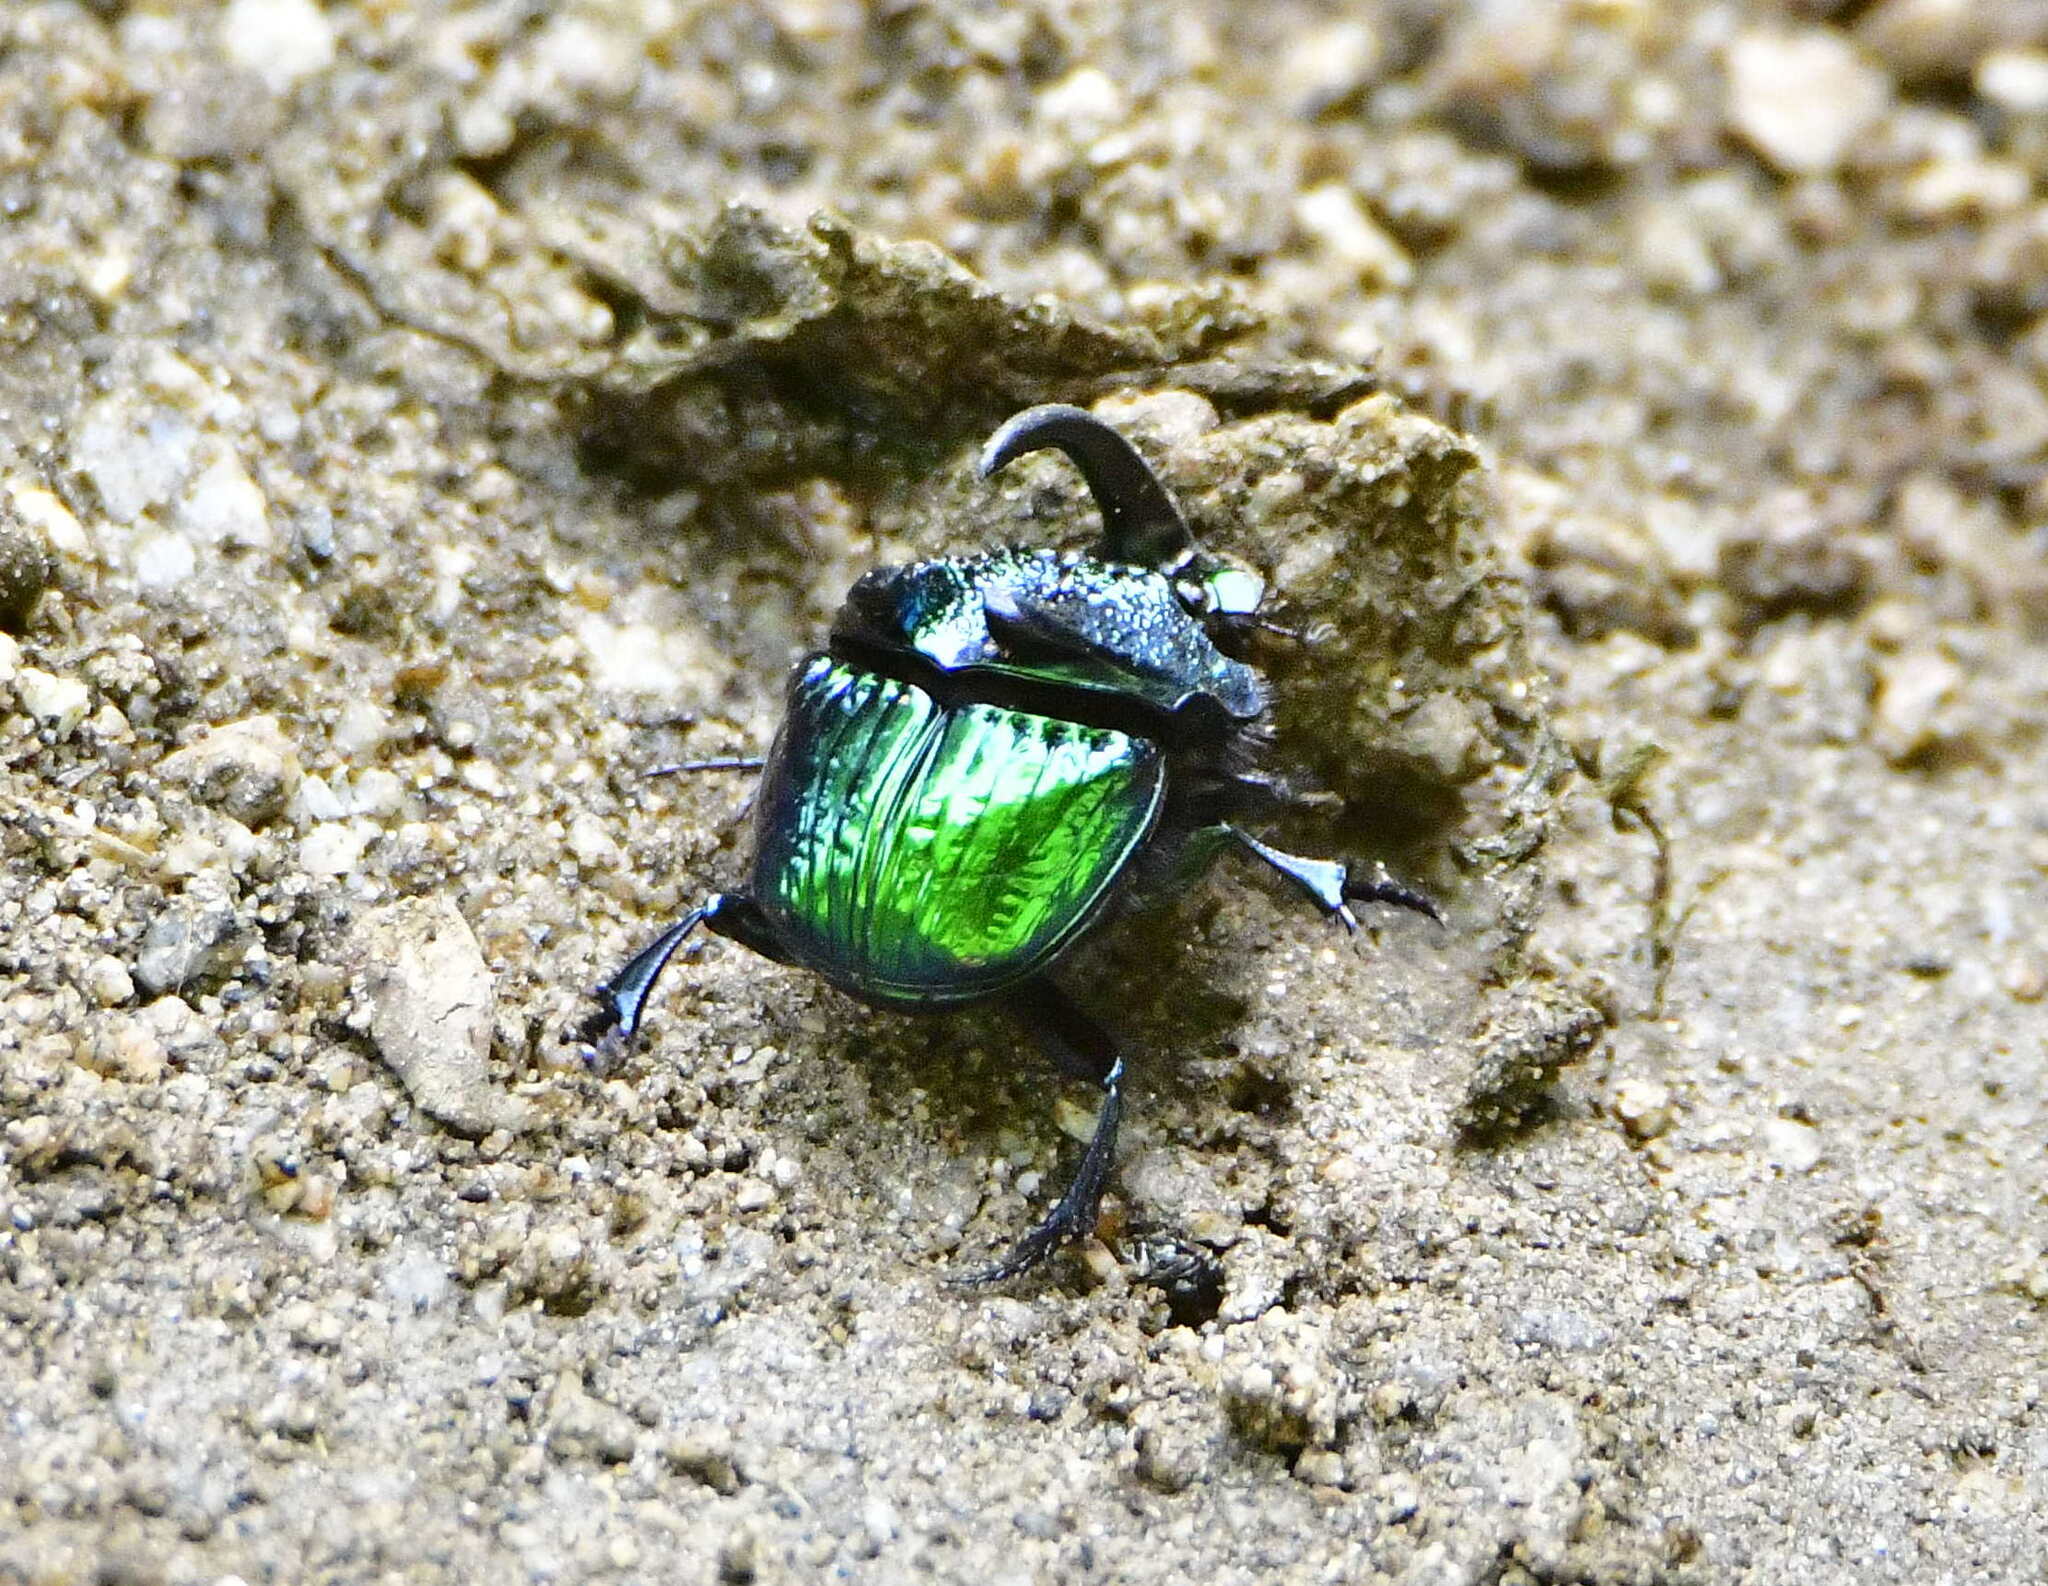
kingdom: Animalia
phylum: Arthropoda
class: Insecta
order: Coleoptera
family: Scarabaeidae
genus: Phanaeus
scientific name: Phanaeus obliquans
